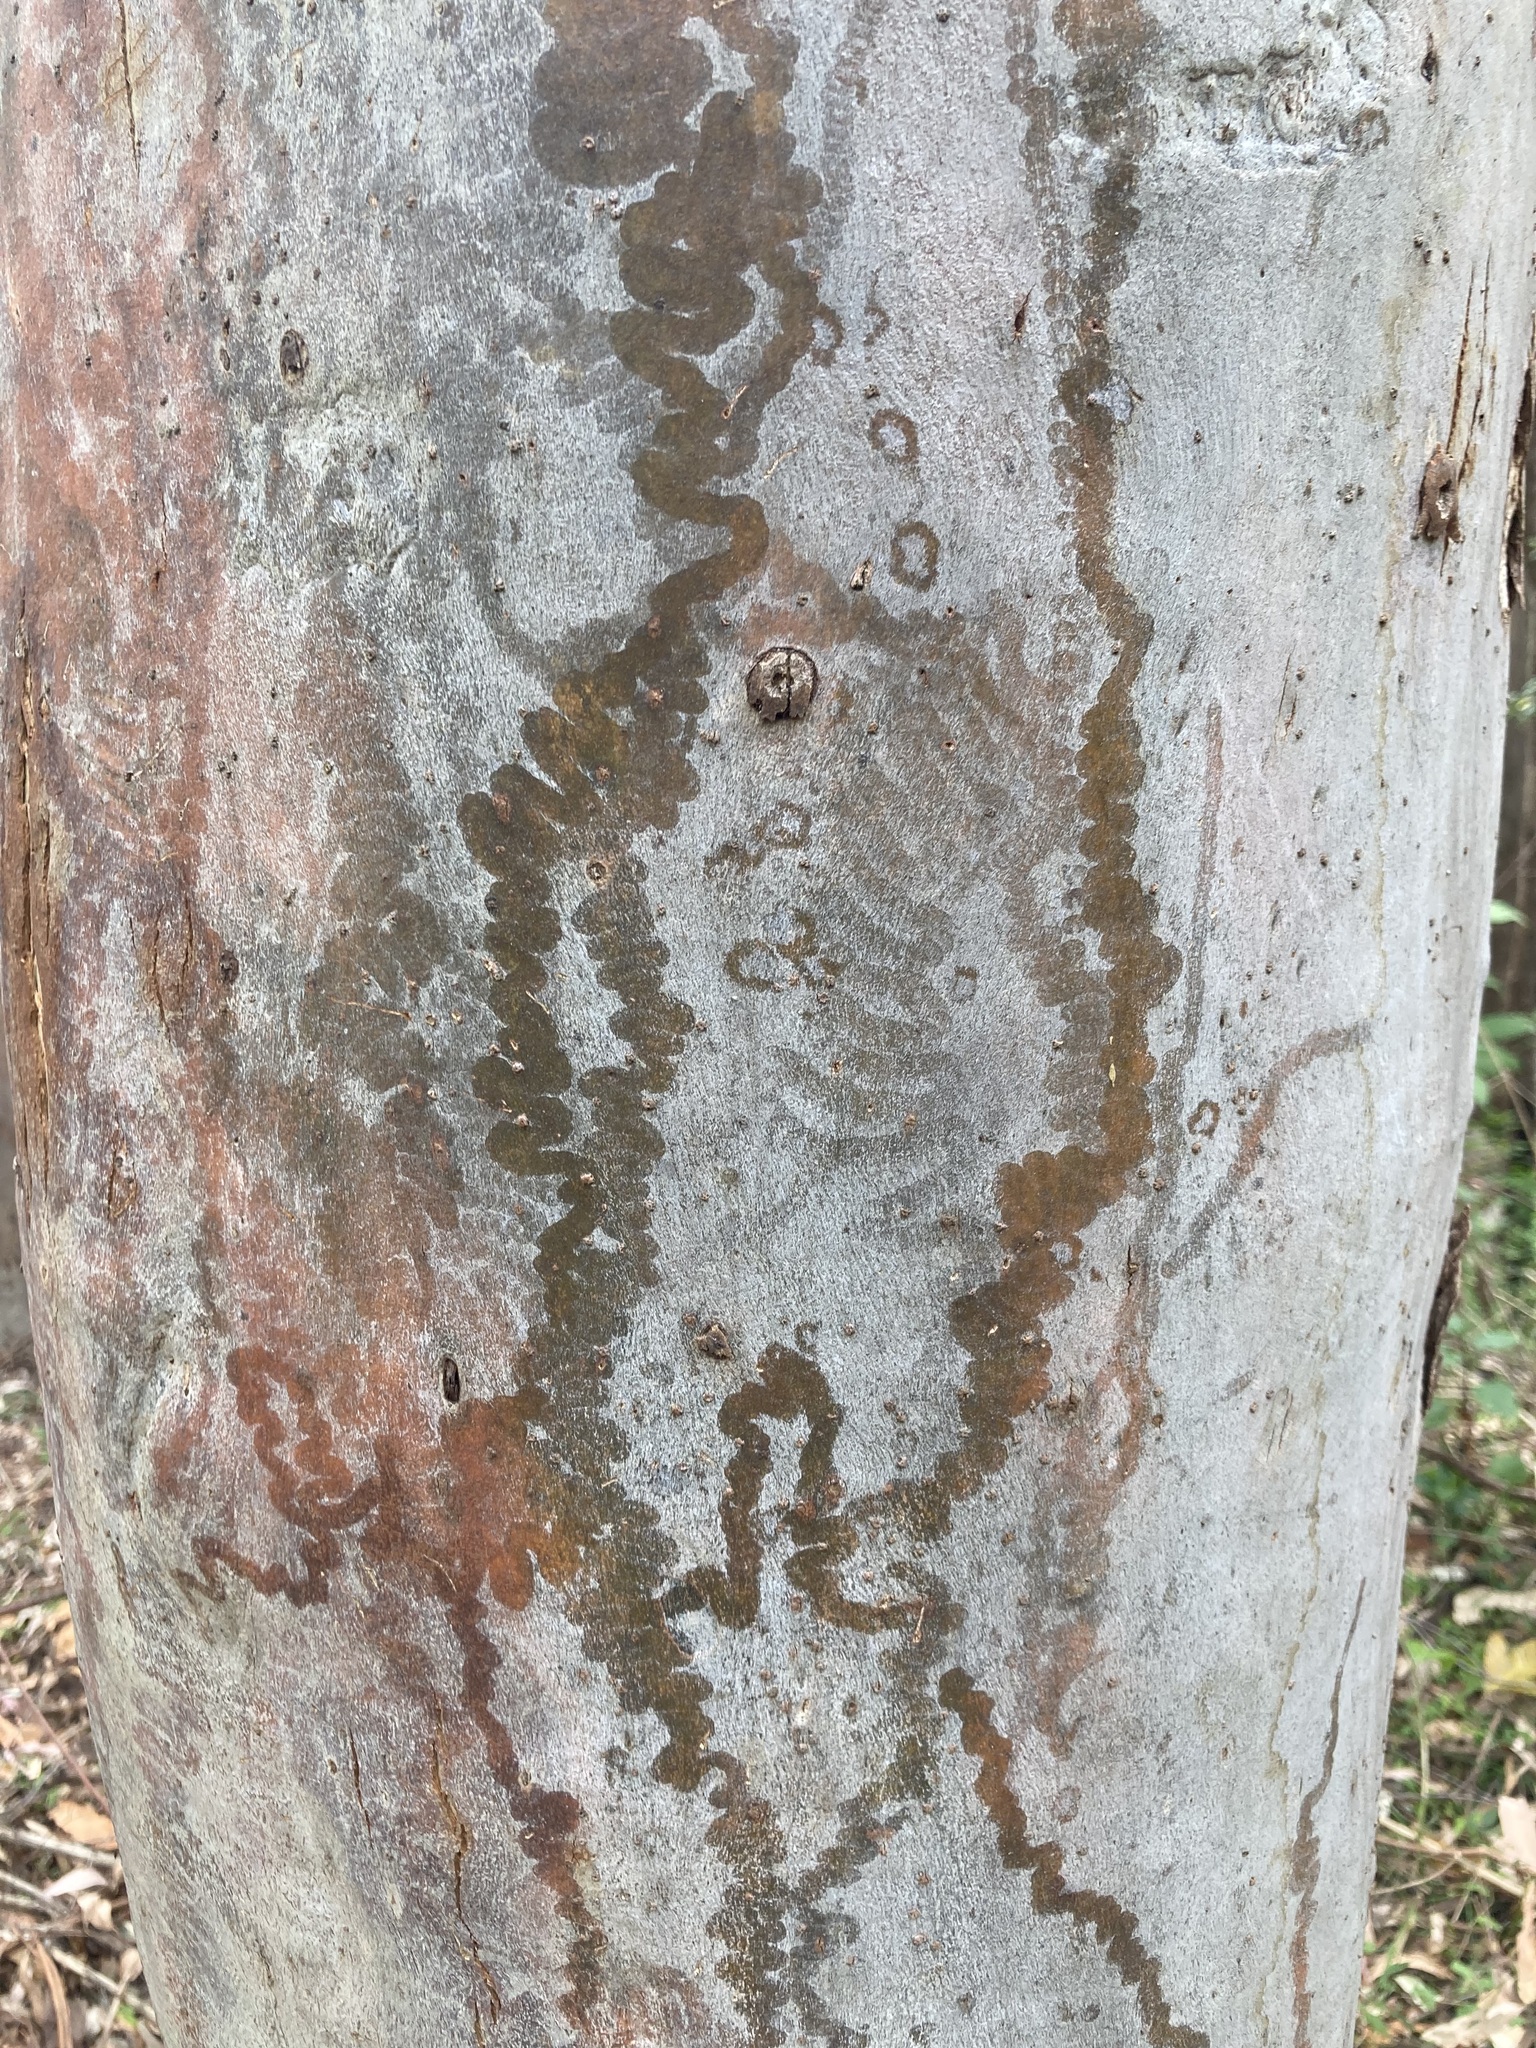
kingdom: Animalia
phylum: Mollusca
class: Gastropoda
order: Stylommatophora
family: Athoracophoridae
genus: Triboniophorus
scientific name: Triboniophorus graeffei
